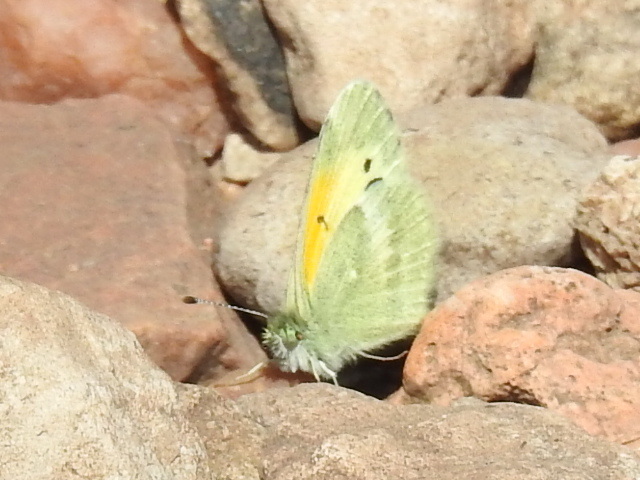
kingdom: Animalia
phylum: Arthropoda
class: Insecta
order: Lepidoptera
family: Pieridae
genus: Nathalis
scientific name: Nathalis iole
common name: Dainty sulphur
